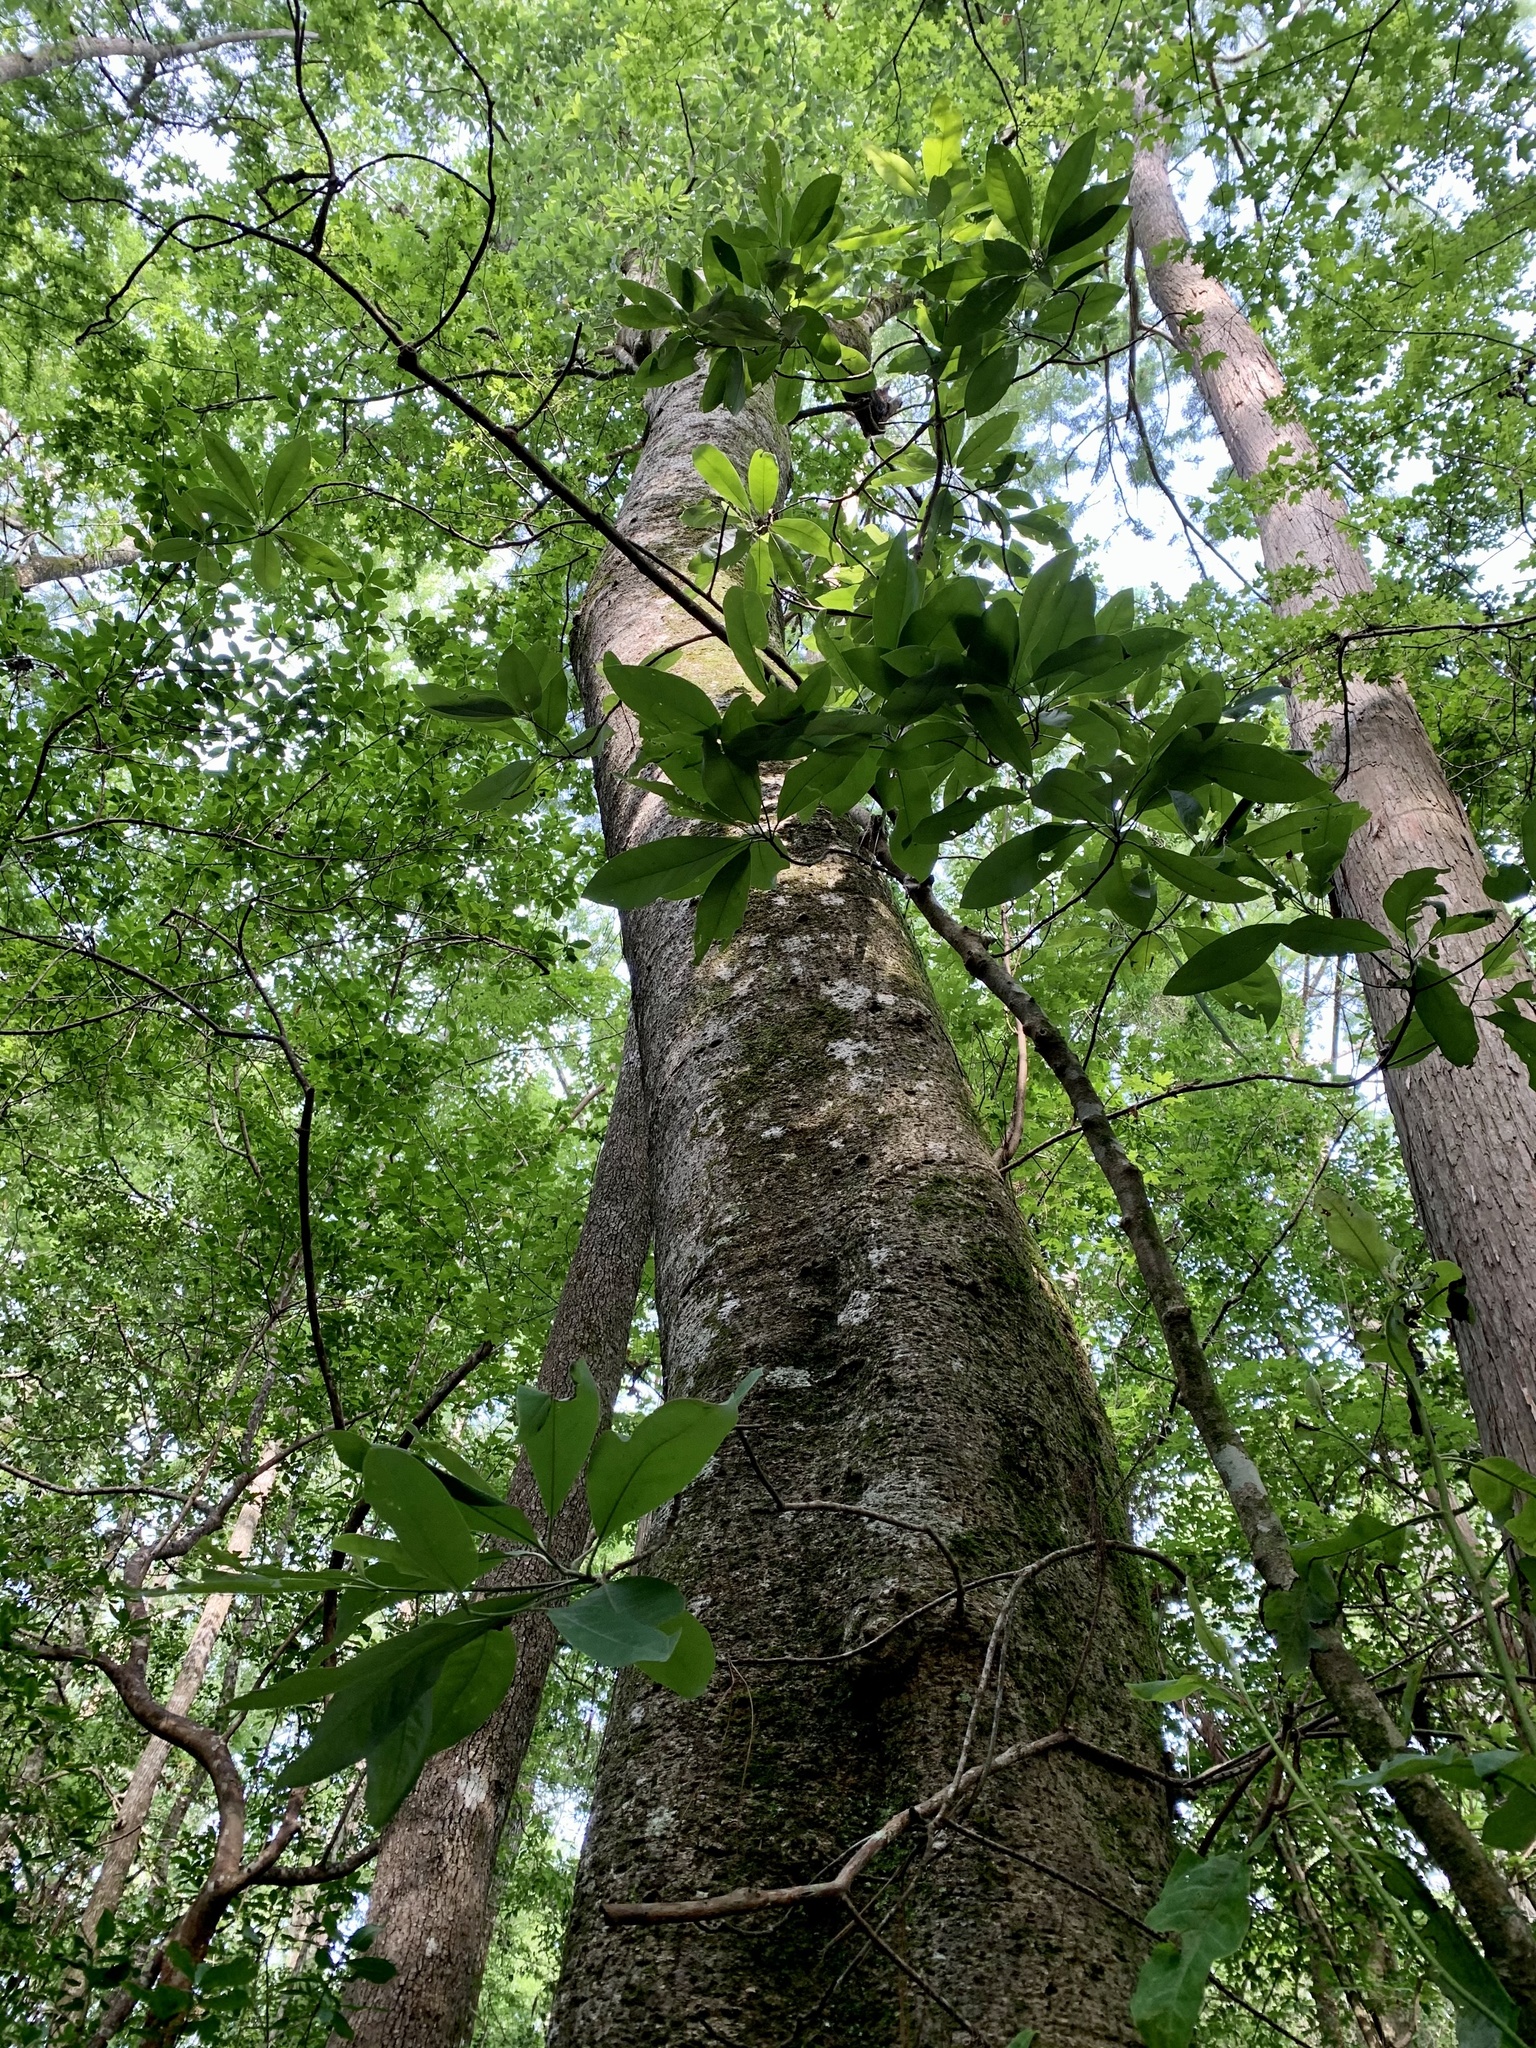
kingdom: Plantae
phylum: Tracheophyta
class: Magnoliopsida
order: Magnoliales
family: Magnoliaceae
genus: Magnolia
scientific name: Magnolia virginiana
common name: Swamp bay
